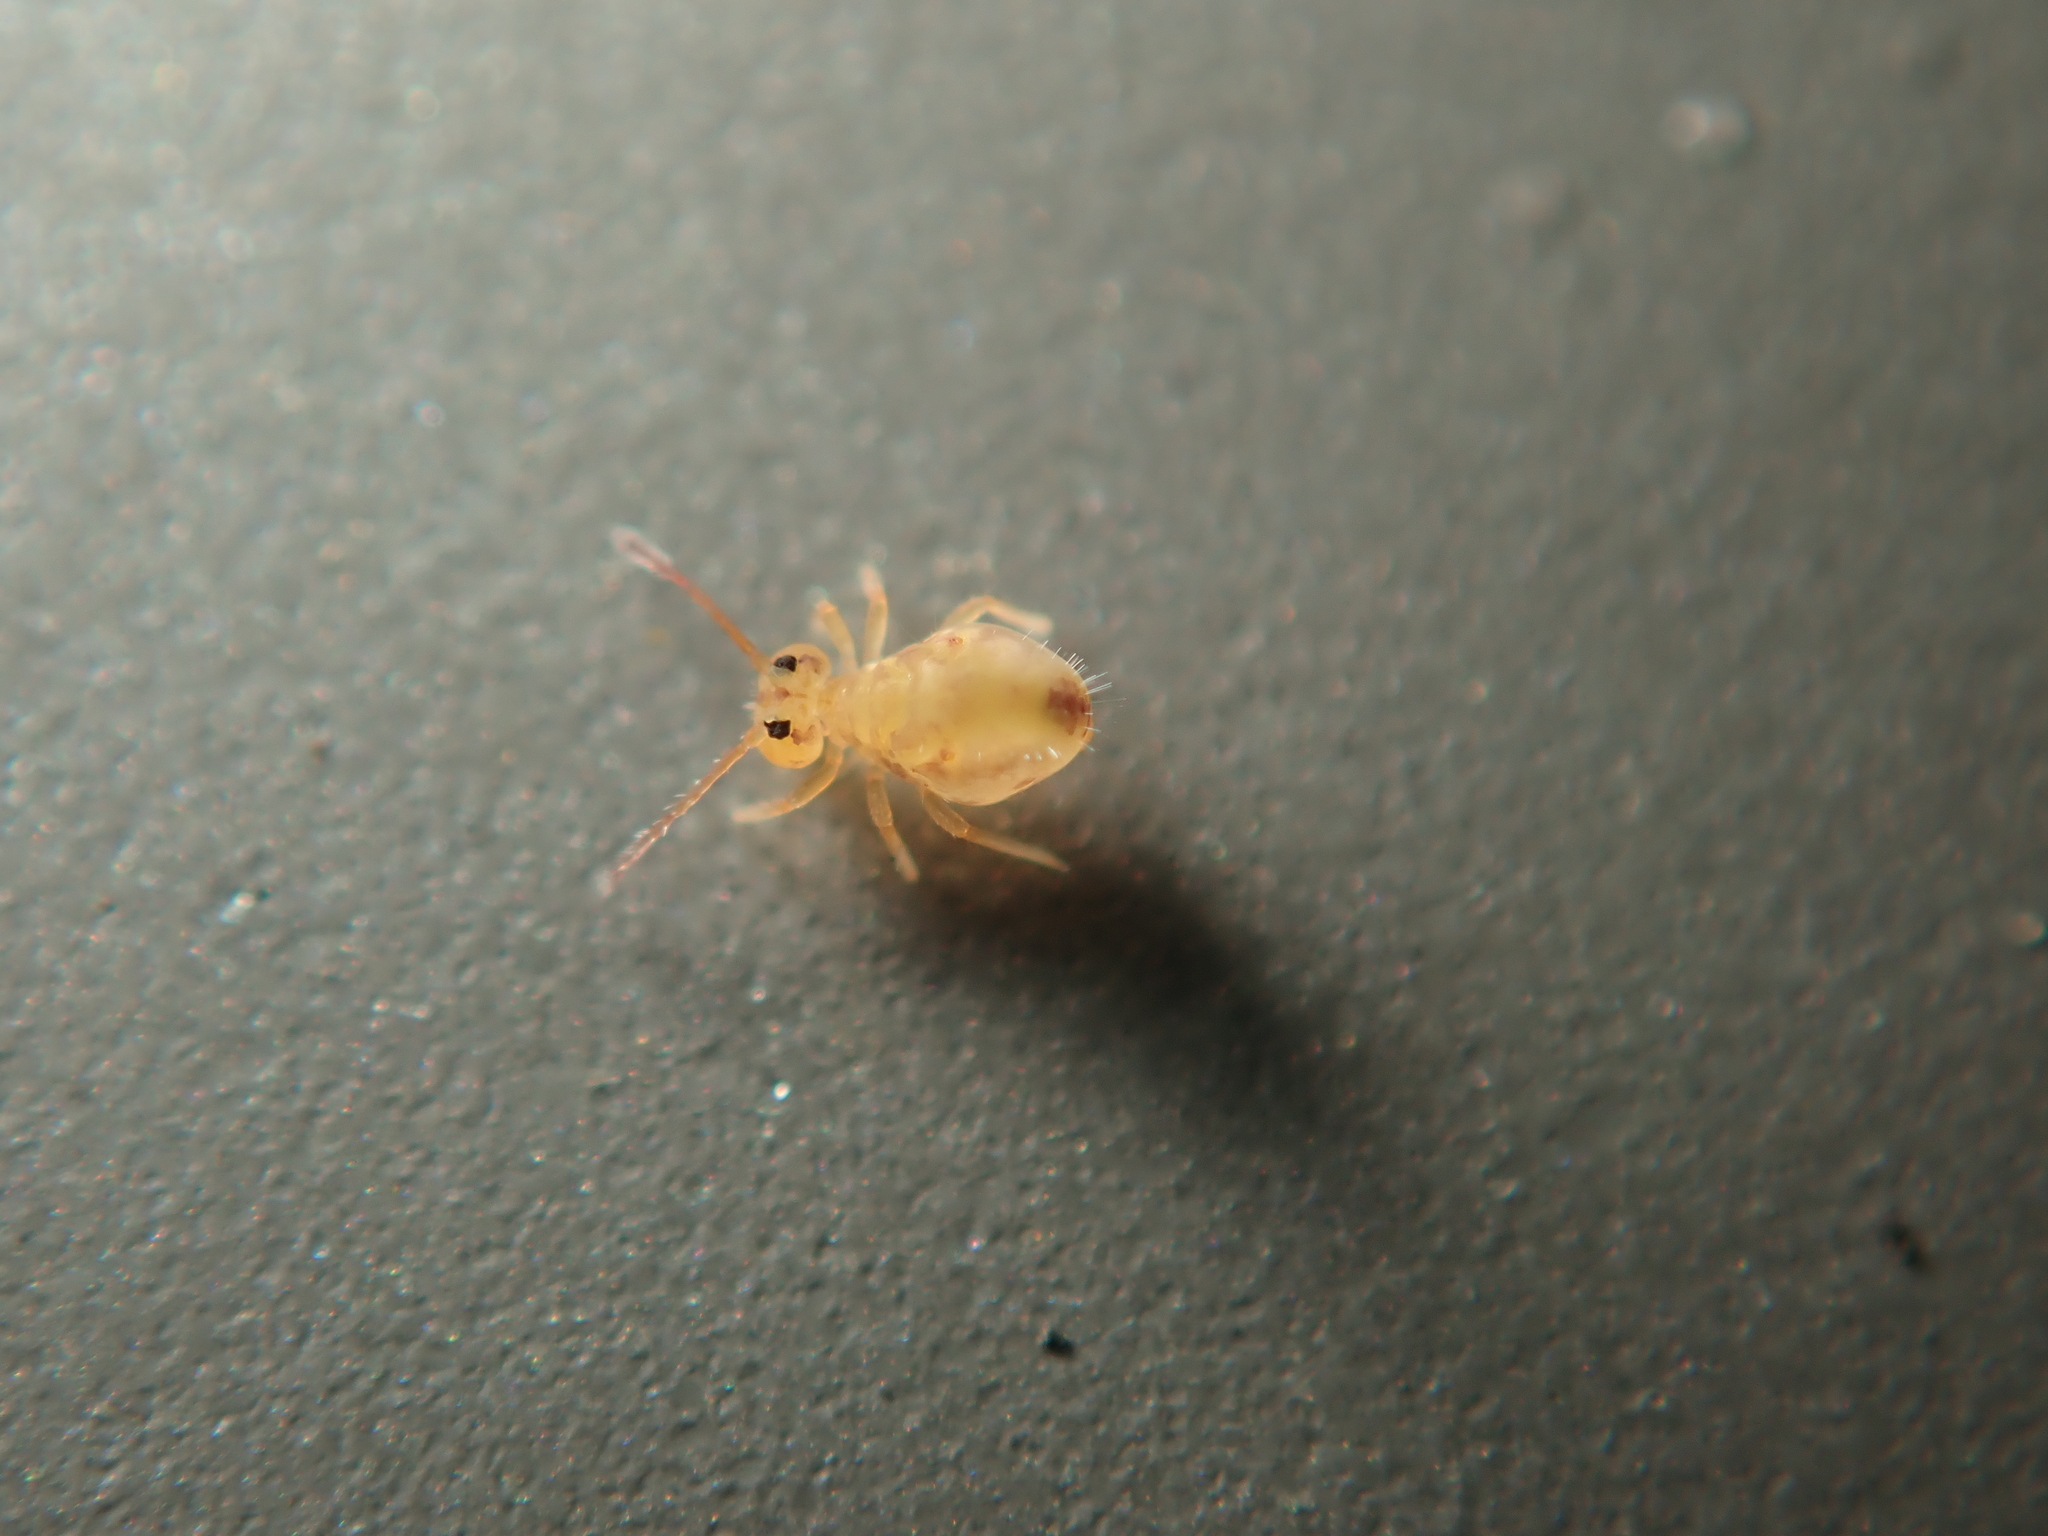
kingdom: Animalia
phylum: Arthropoda
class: Collembola
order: Symphypleona
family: Dicyrtomidae
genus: Dicyrtomina
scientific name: Dicyrtomina minuta
